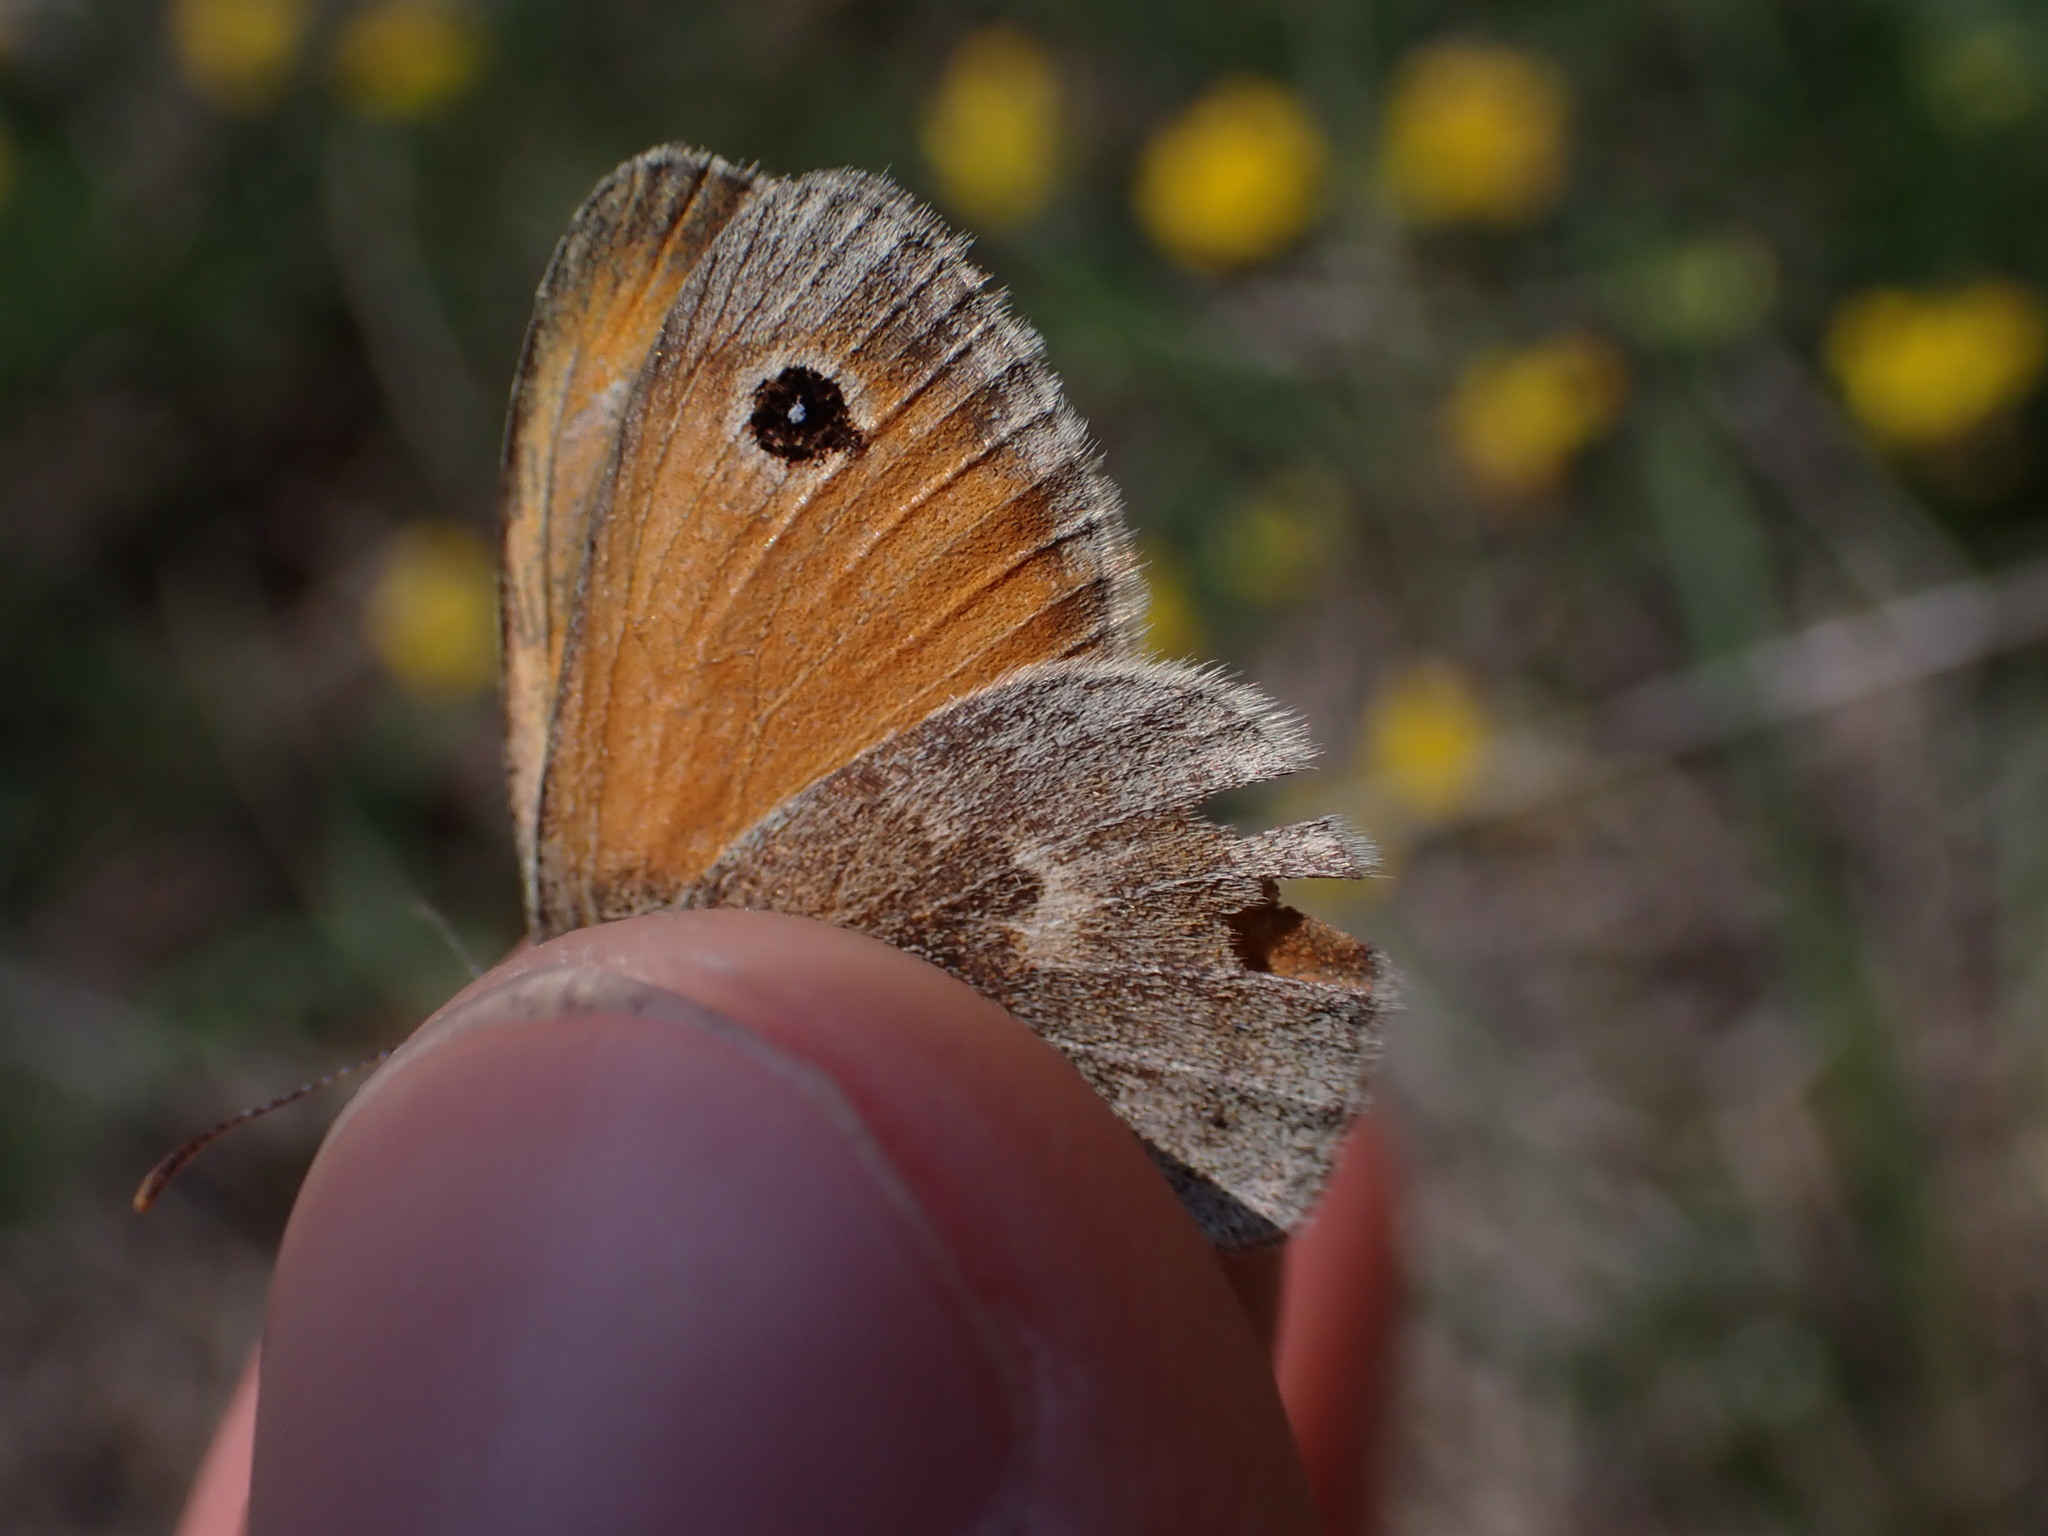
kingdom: Animalia
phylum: Arthropoda
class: Insecta
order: Lepidoptera
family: Nymphalidae
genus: Coenonympha
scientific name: Coenonympha pamphilus
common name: Small heath
